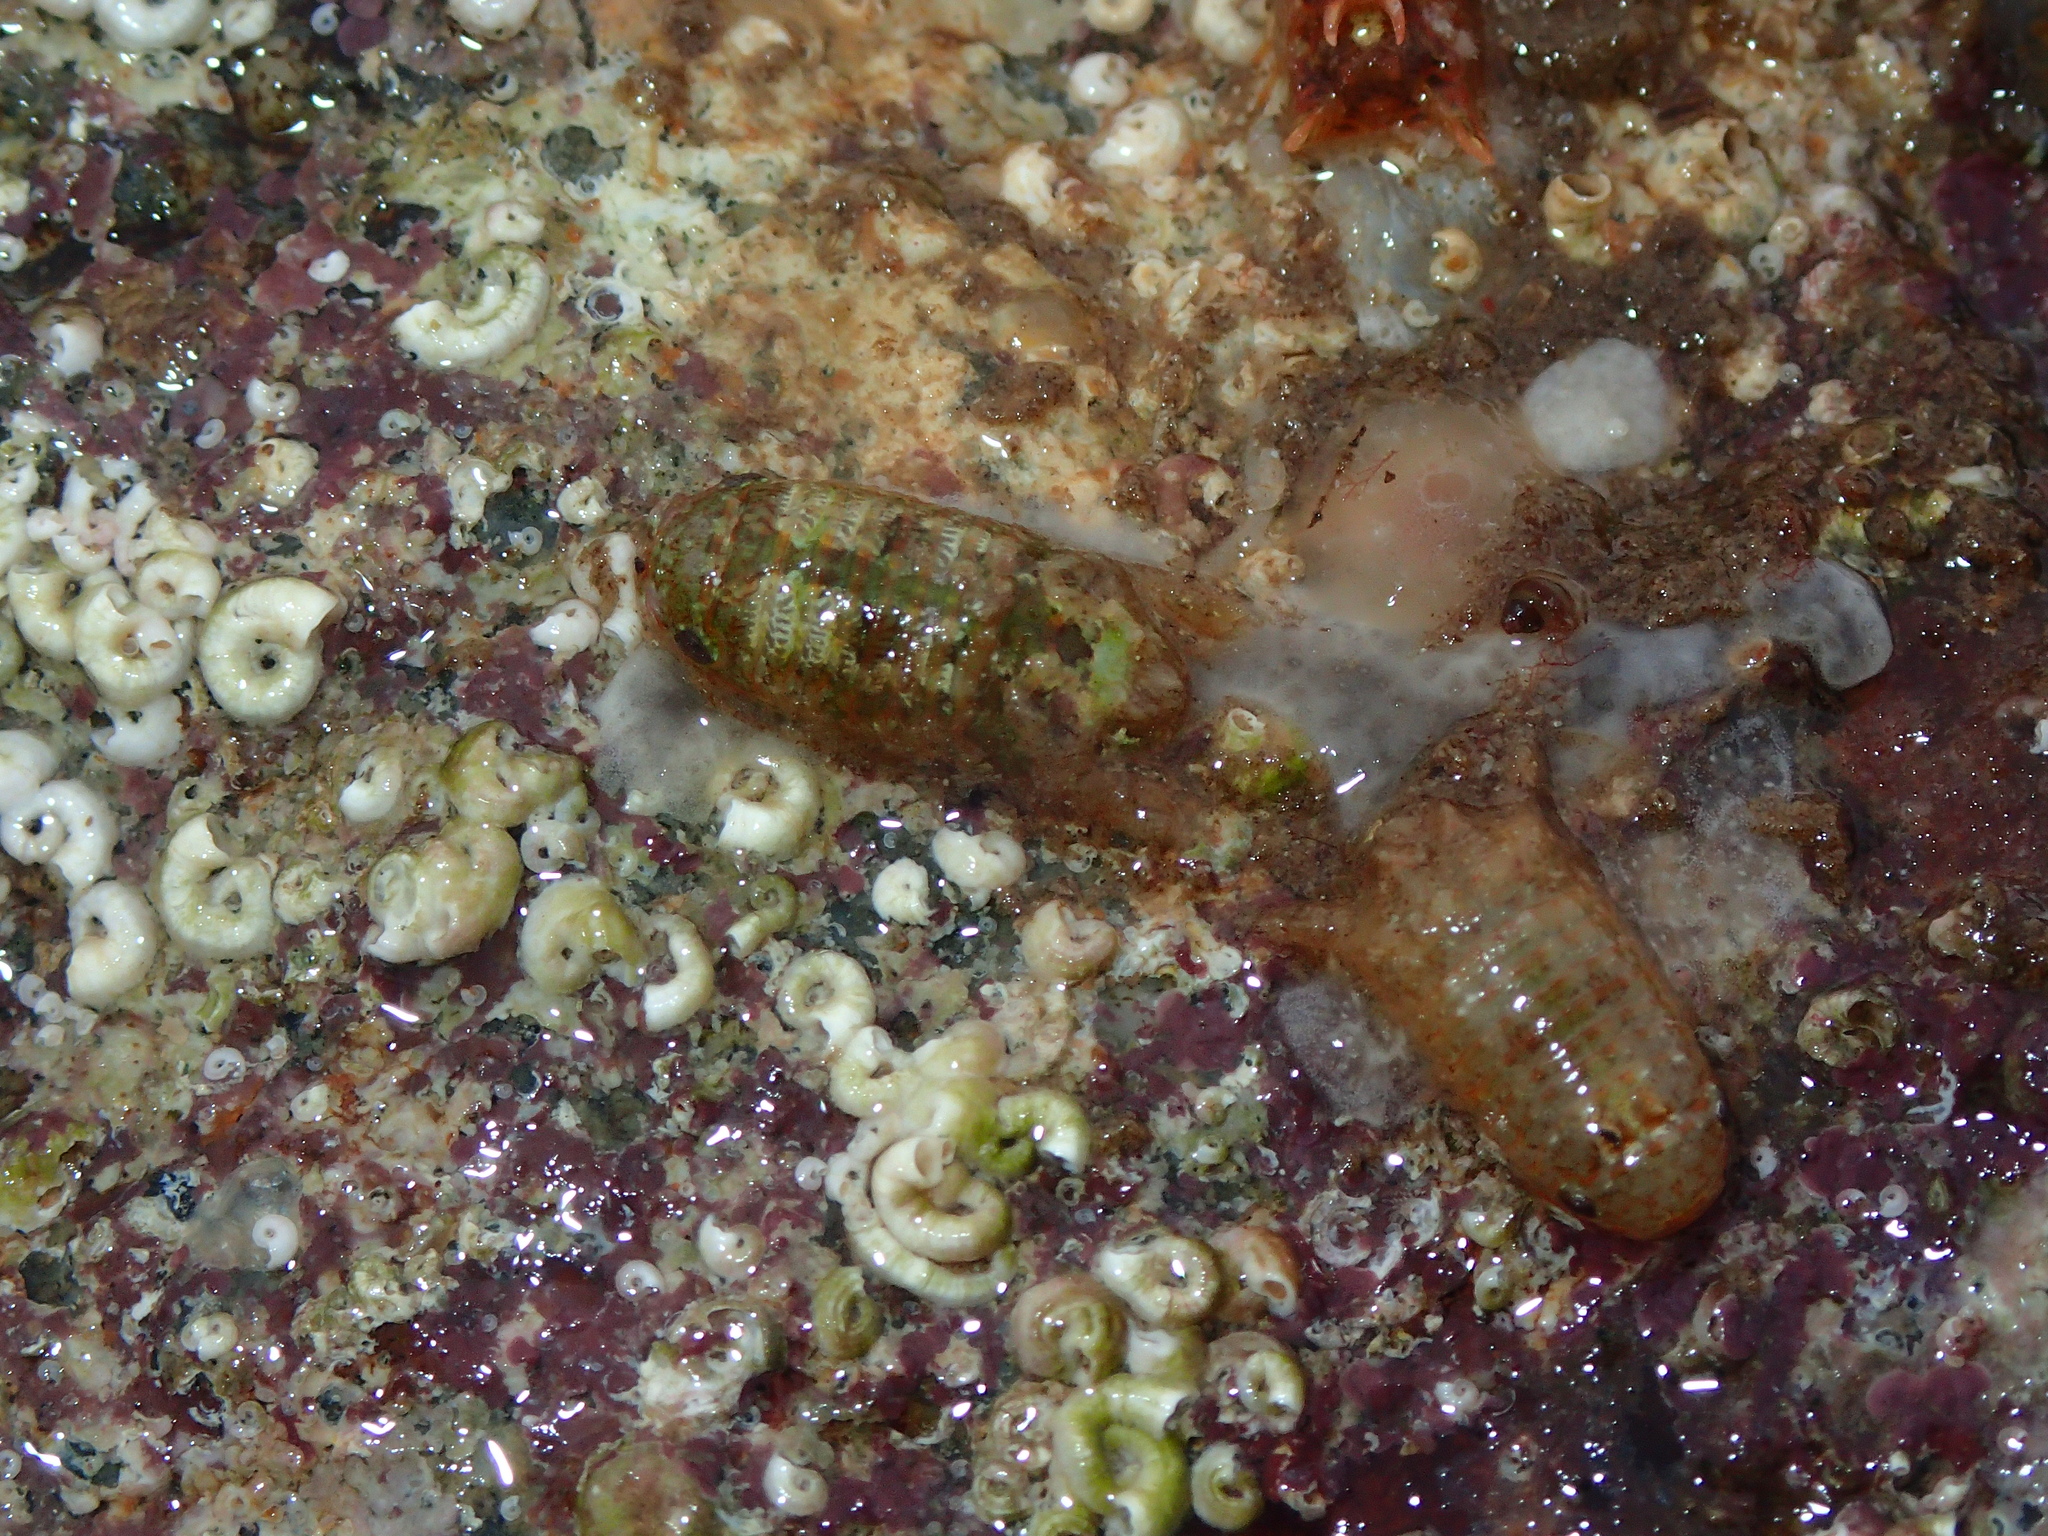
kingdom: Animalia
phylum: Arthropoda
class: Malacostraca
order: Isopoda
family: Sphaeromatidae
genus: Cymodoce
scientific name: Cymodoce truncata
